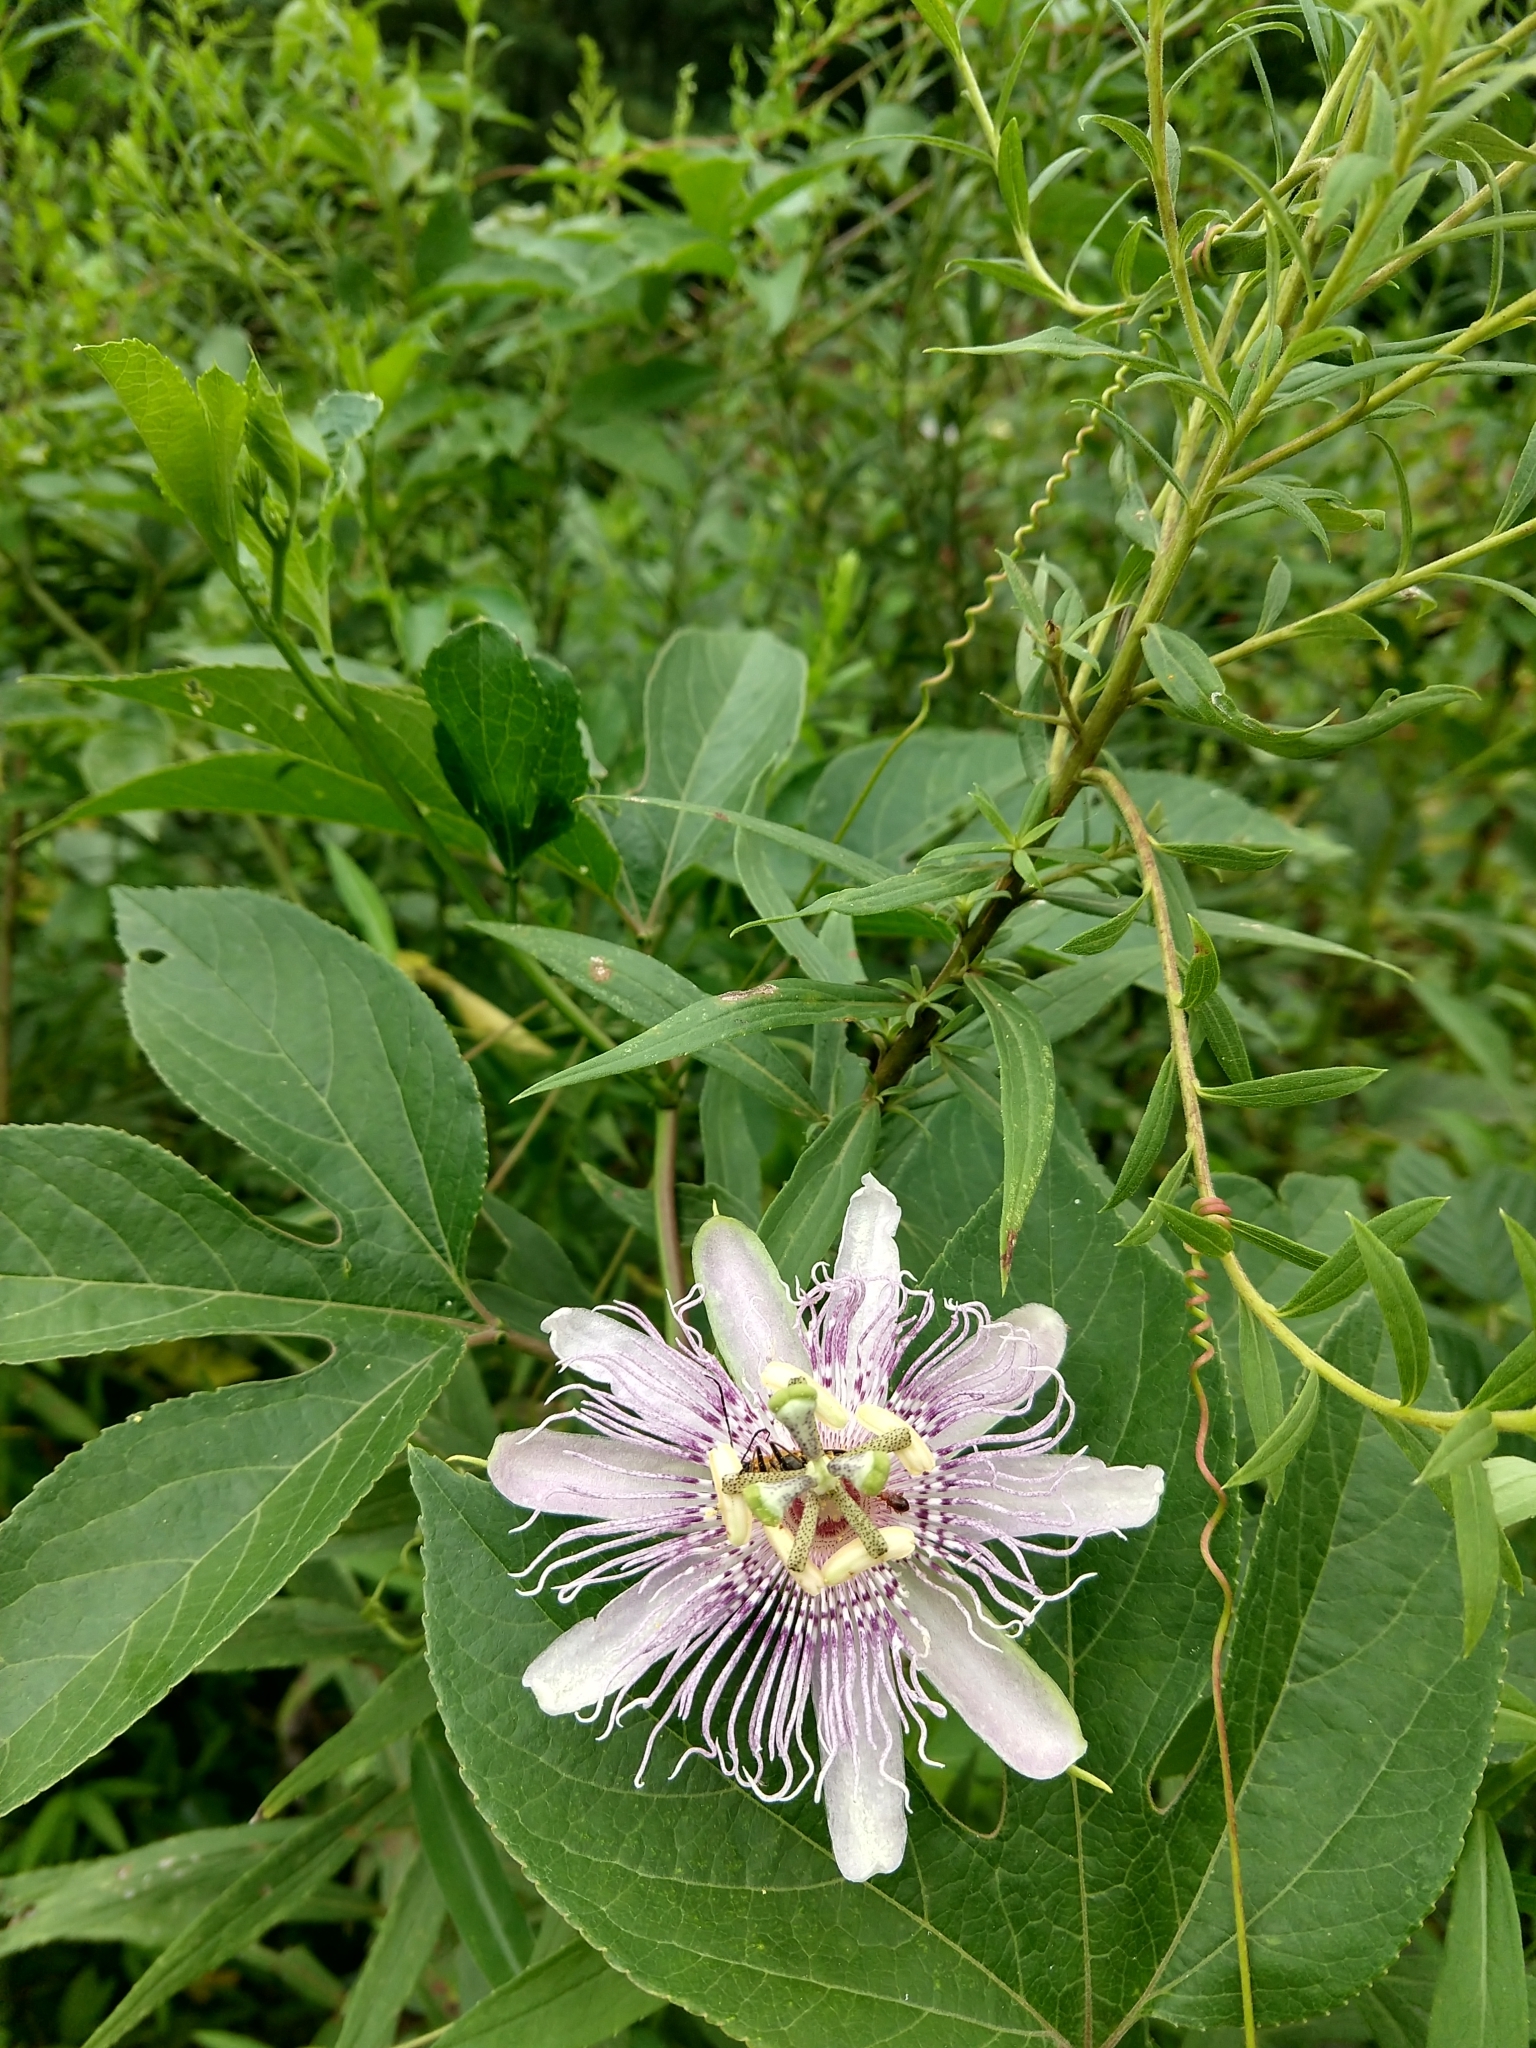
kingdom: Plantae
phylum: Tracheophyta
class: Magnoliopsida
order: Malpighiales
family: Passifloraceae
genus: Passiflora
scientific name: Passiflora incarnata
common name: Apricot-vine
